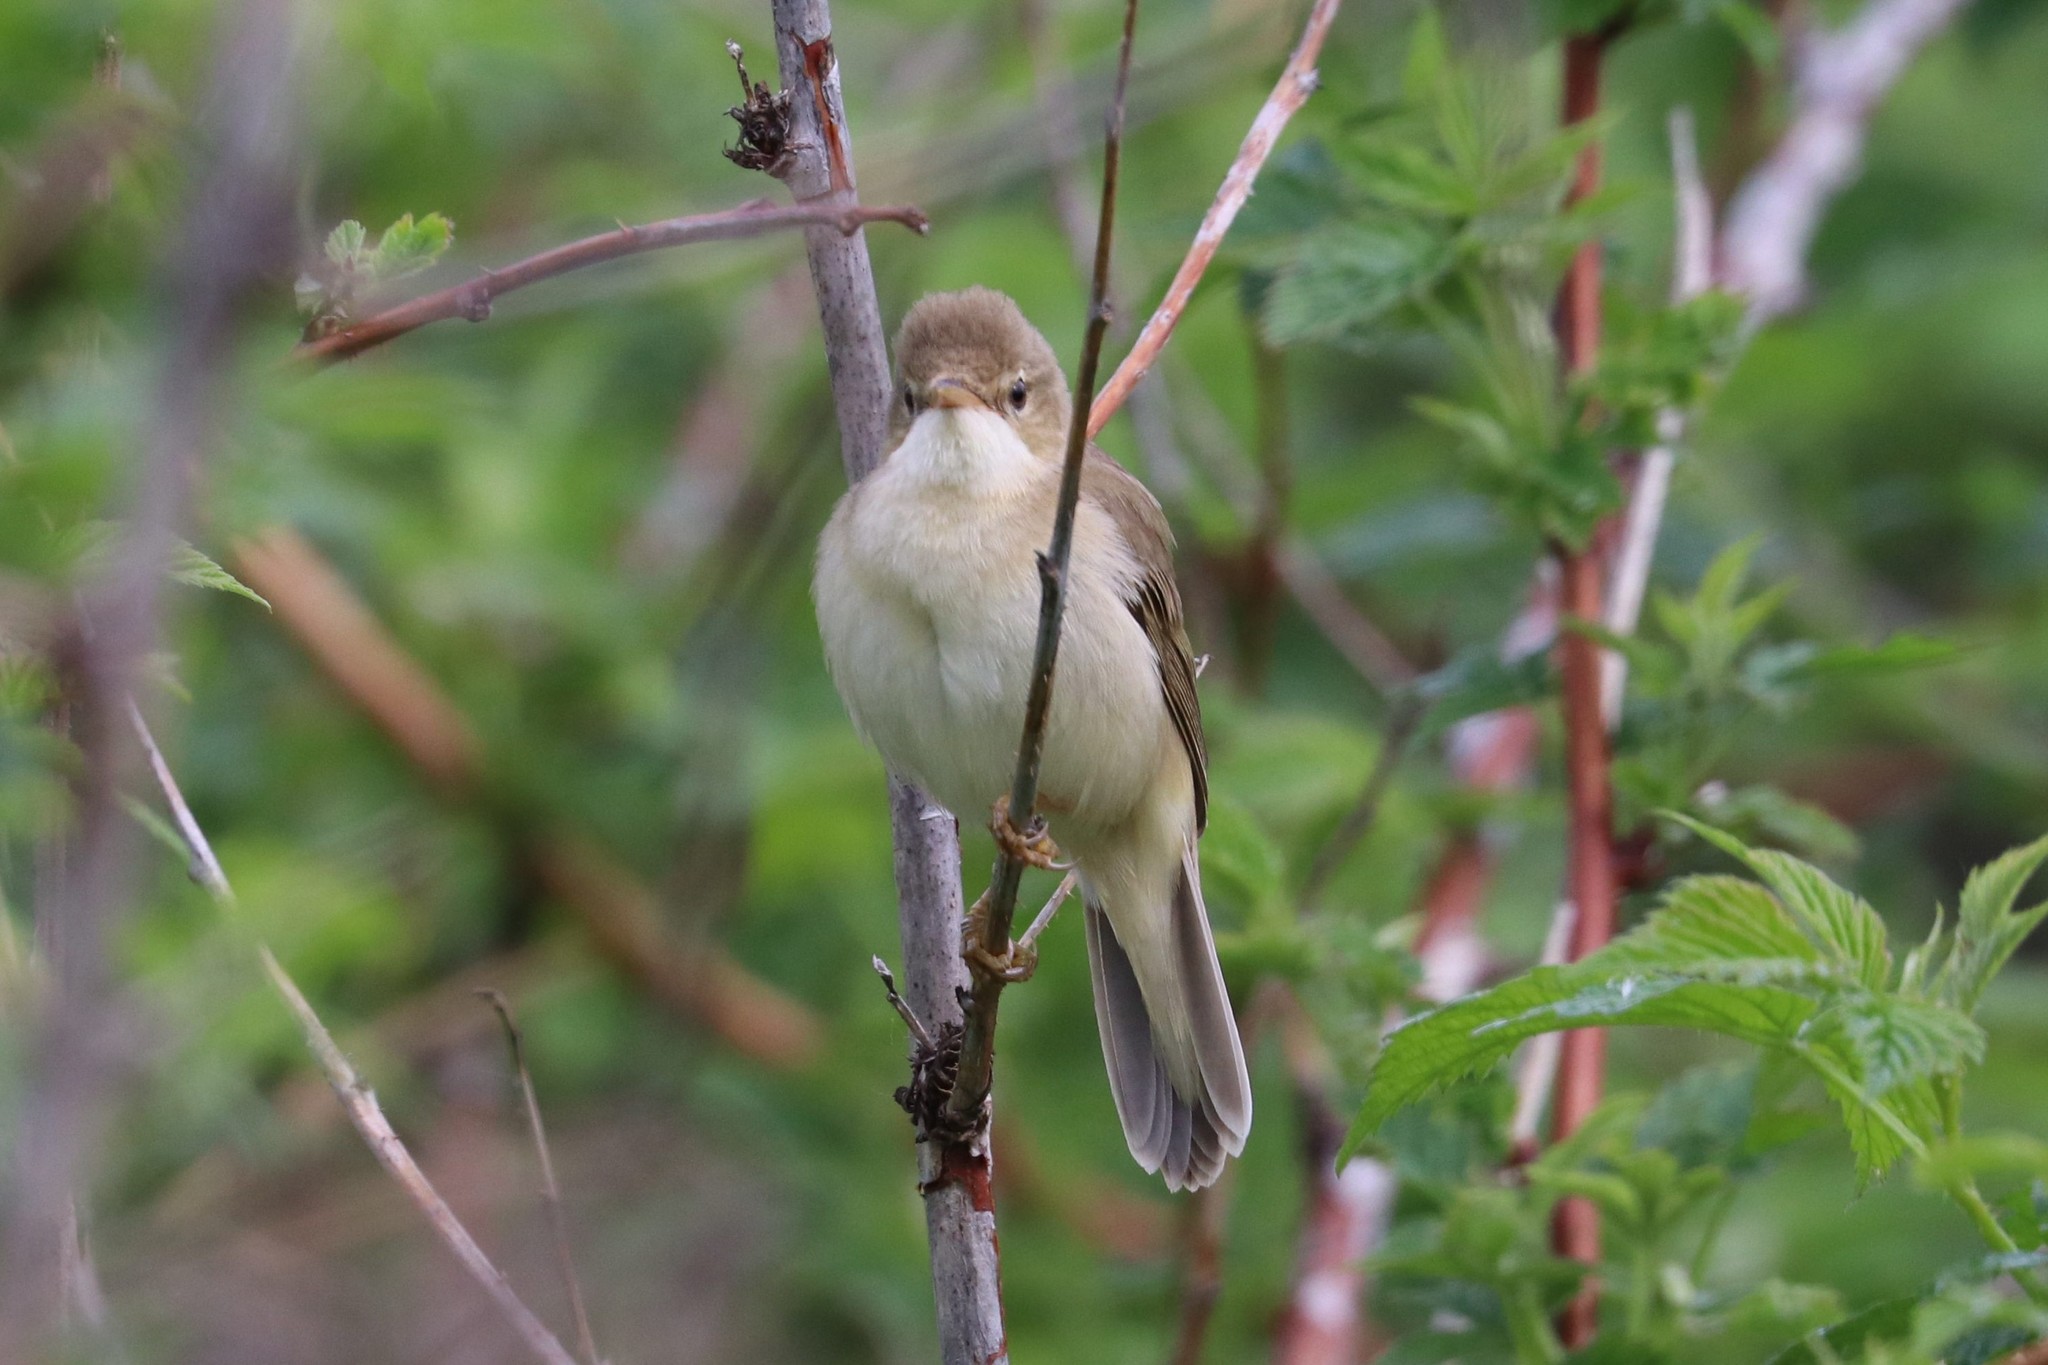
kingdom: Animalia
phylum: Chordata
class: Aves
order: Passeriformes
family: Acrocephalidae
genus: Acrocephalus
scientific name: Acrocephalus palustris
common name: Marsh warbler
